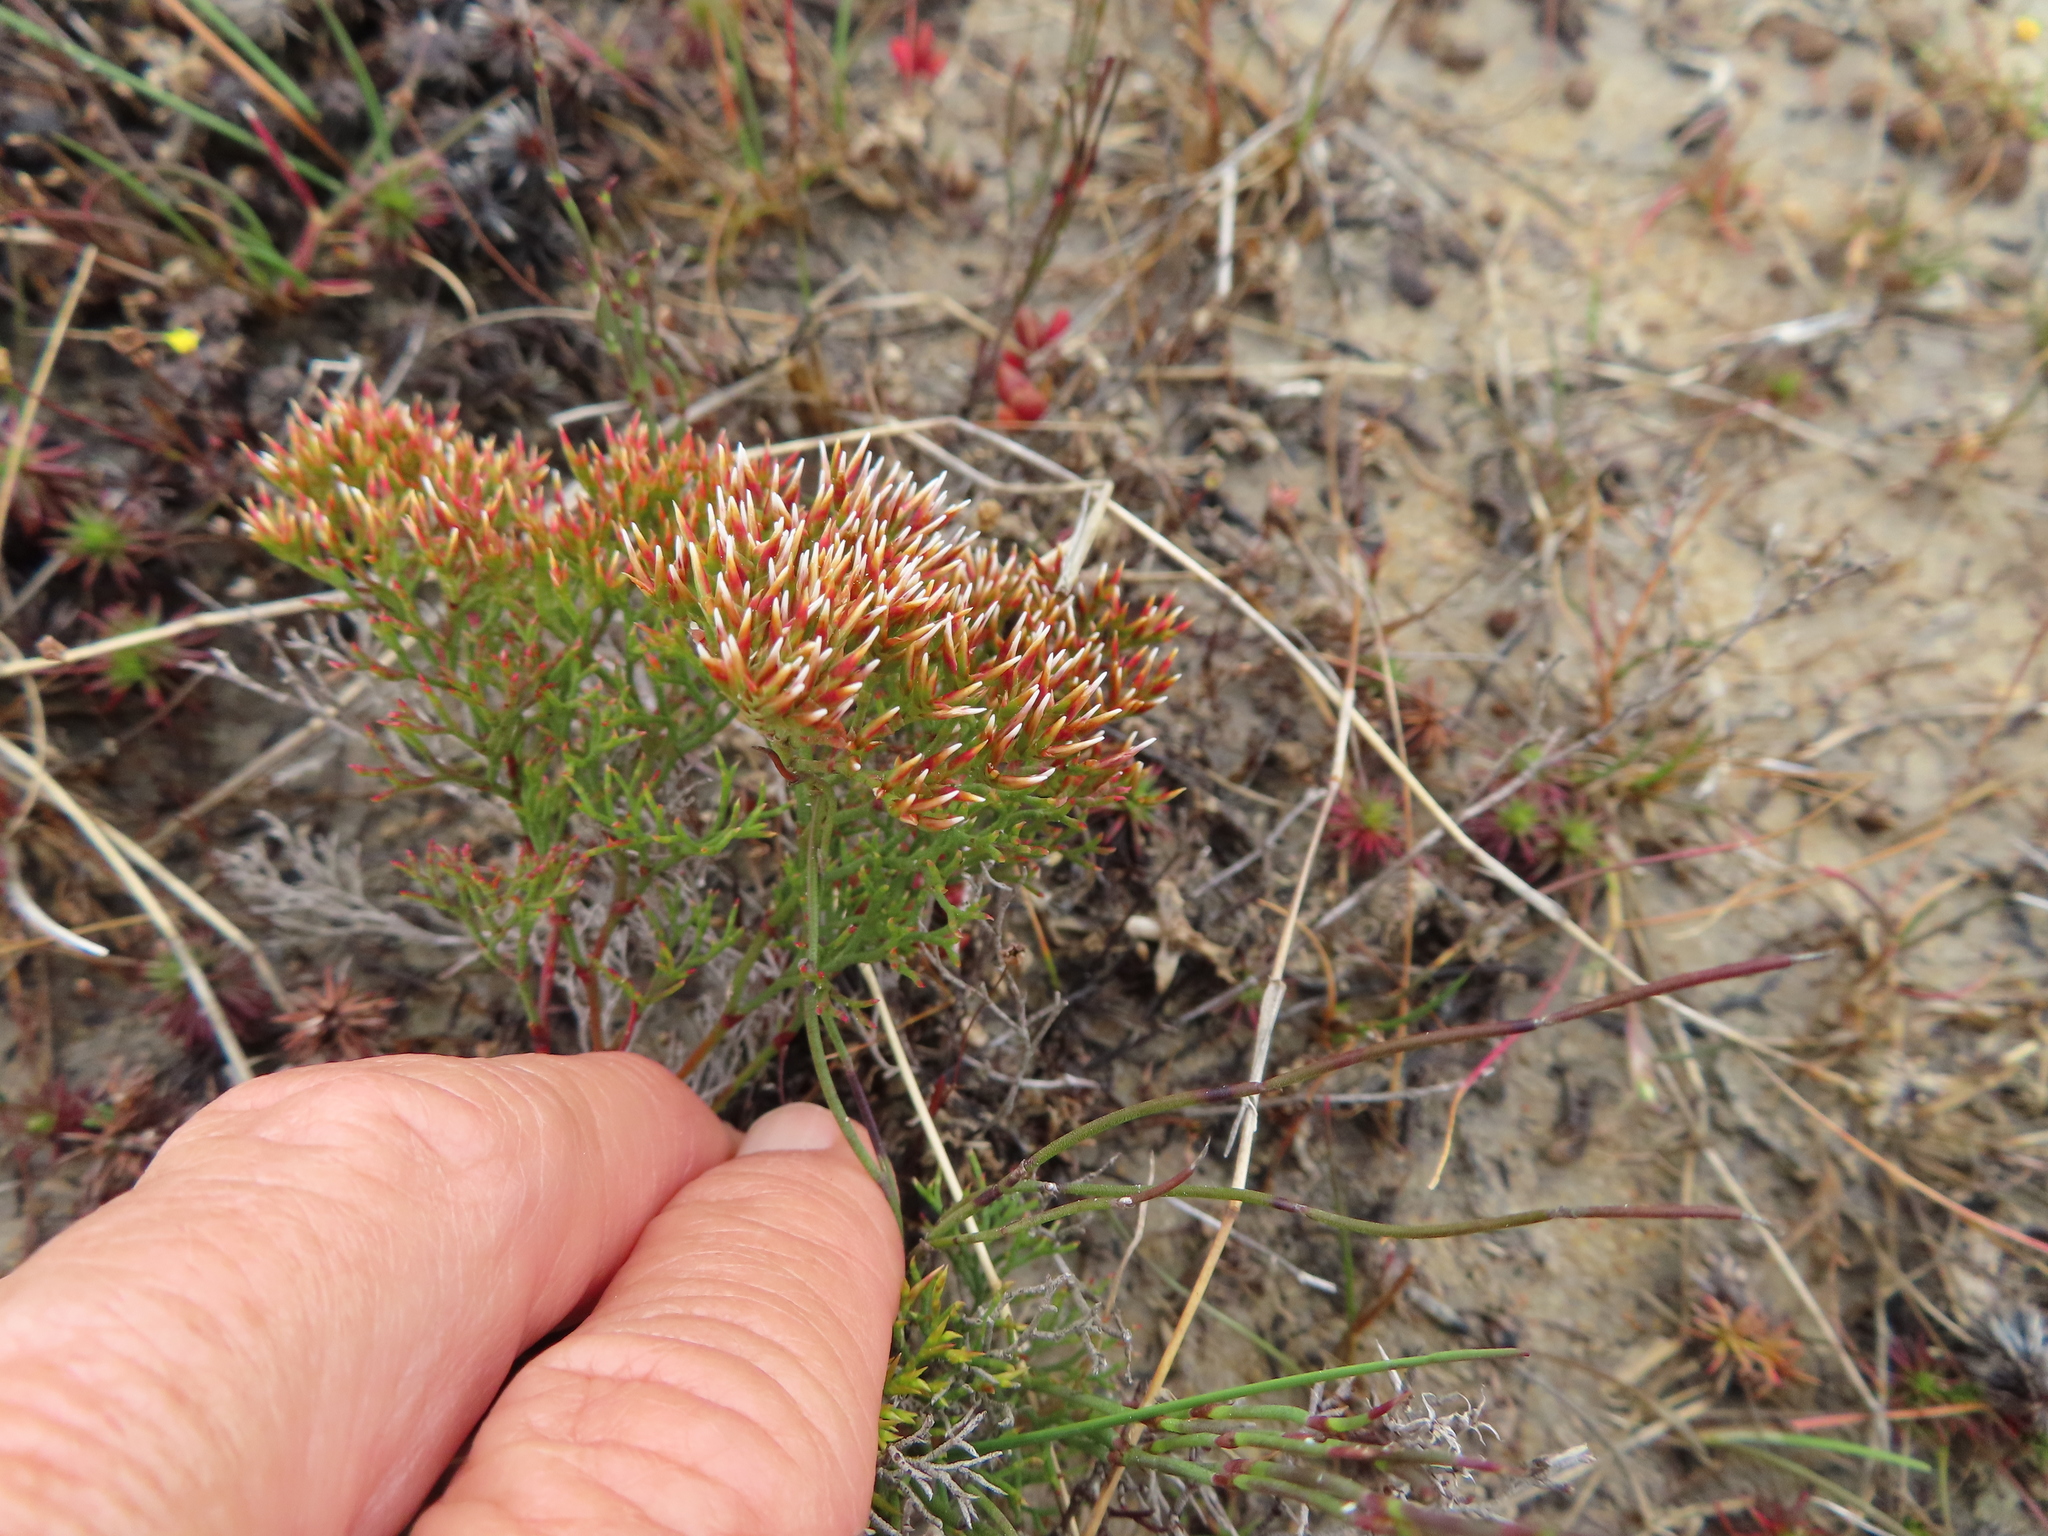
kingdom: Plantae
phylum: Tracheophyta
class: Magnoliopsida
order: Caryophyllales
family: Plumbaginaceae
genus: Limonium
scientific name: Limonium scabrum
